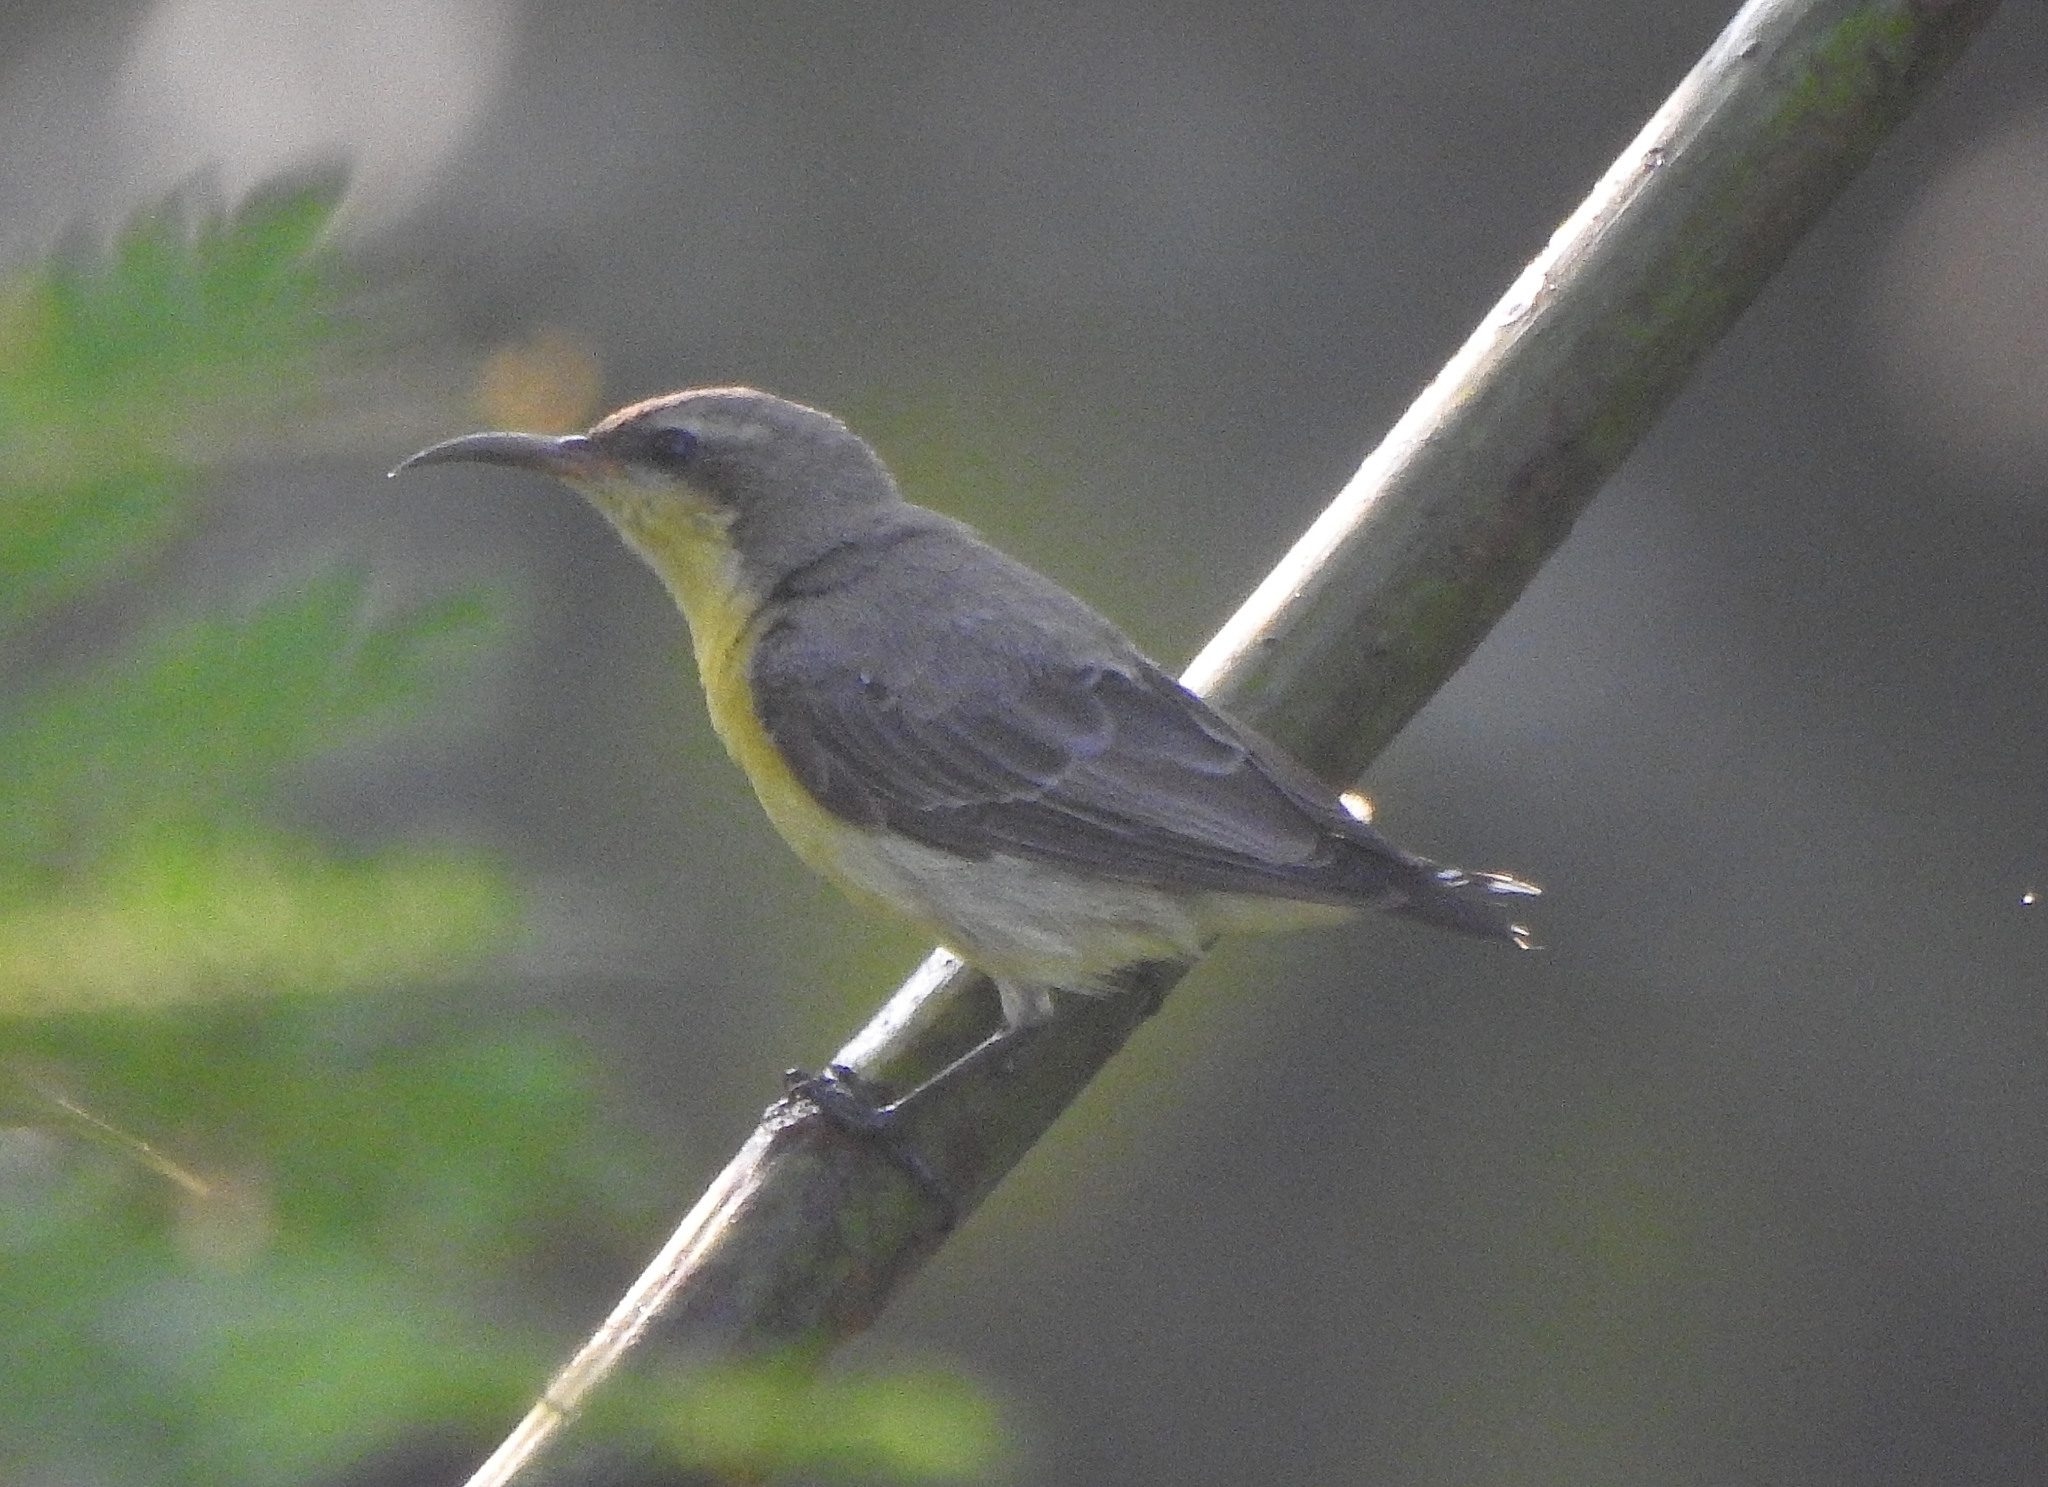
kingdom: Animalia
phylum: Chordata
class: Aves
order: Passeriformes
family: Nectariniidae
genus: Cinnyris
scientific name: Cinnyris asiaticus
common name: Purple sunbird
